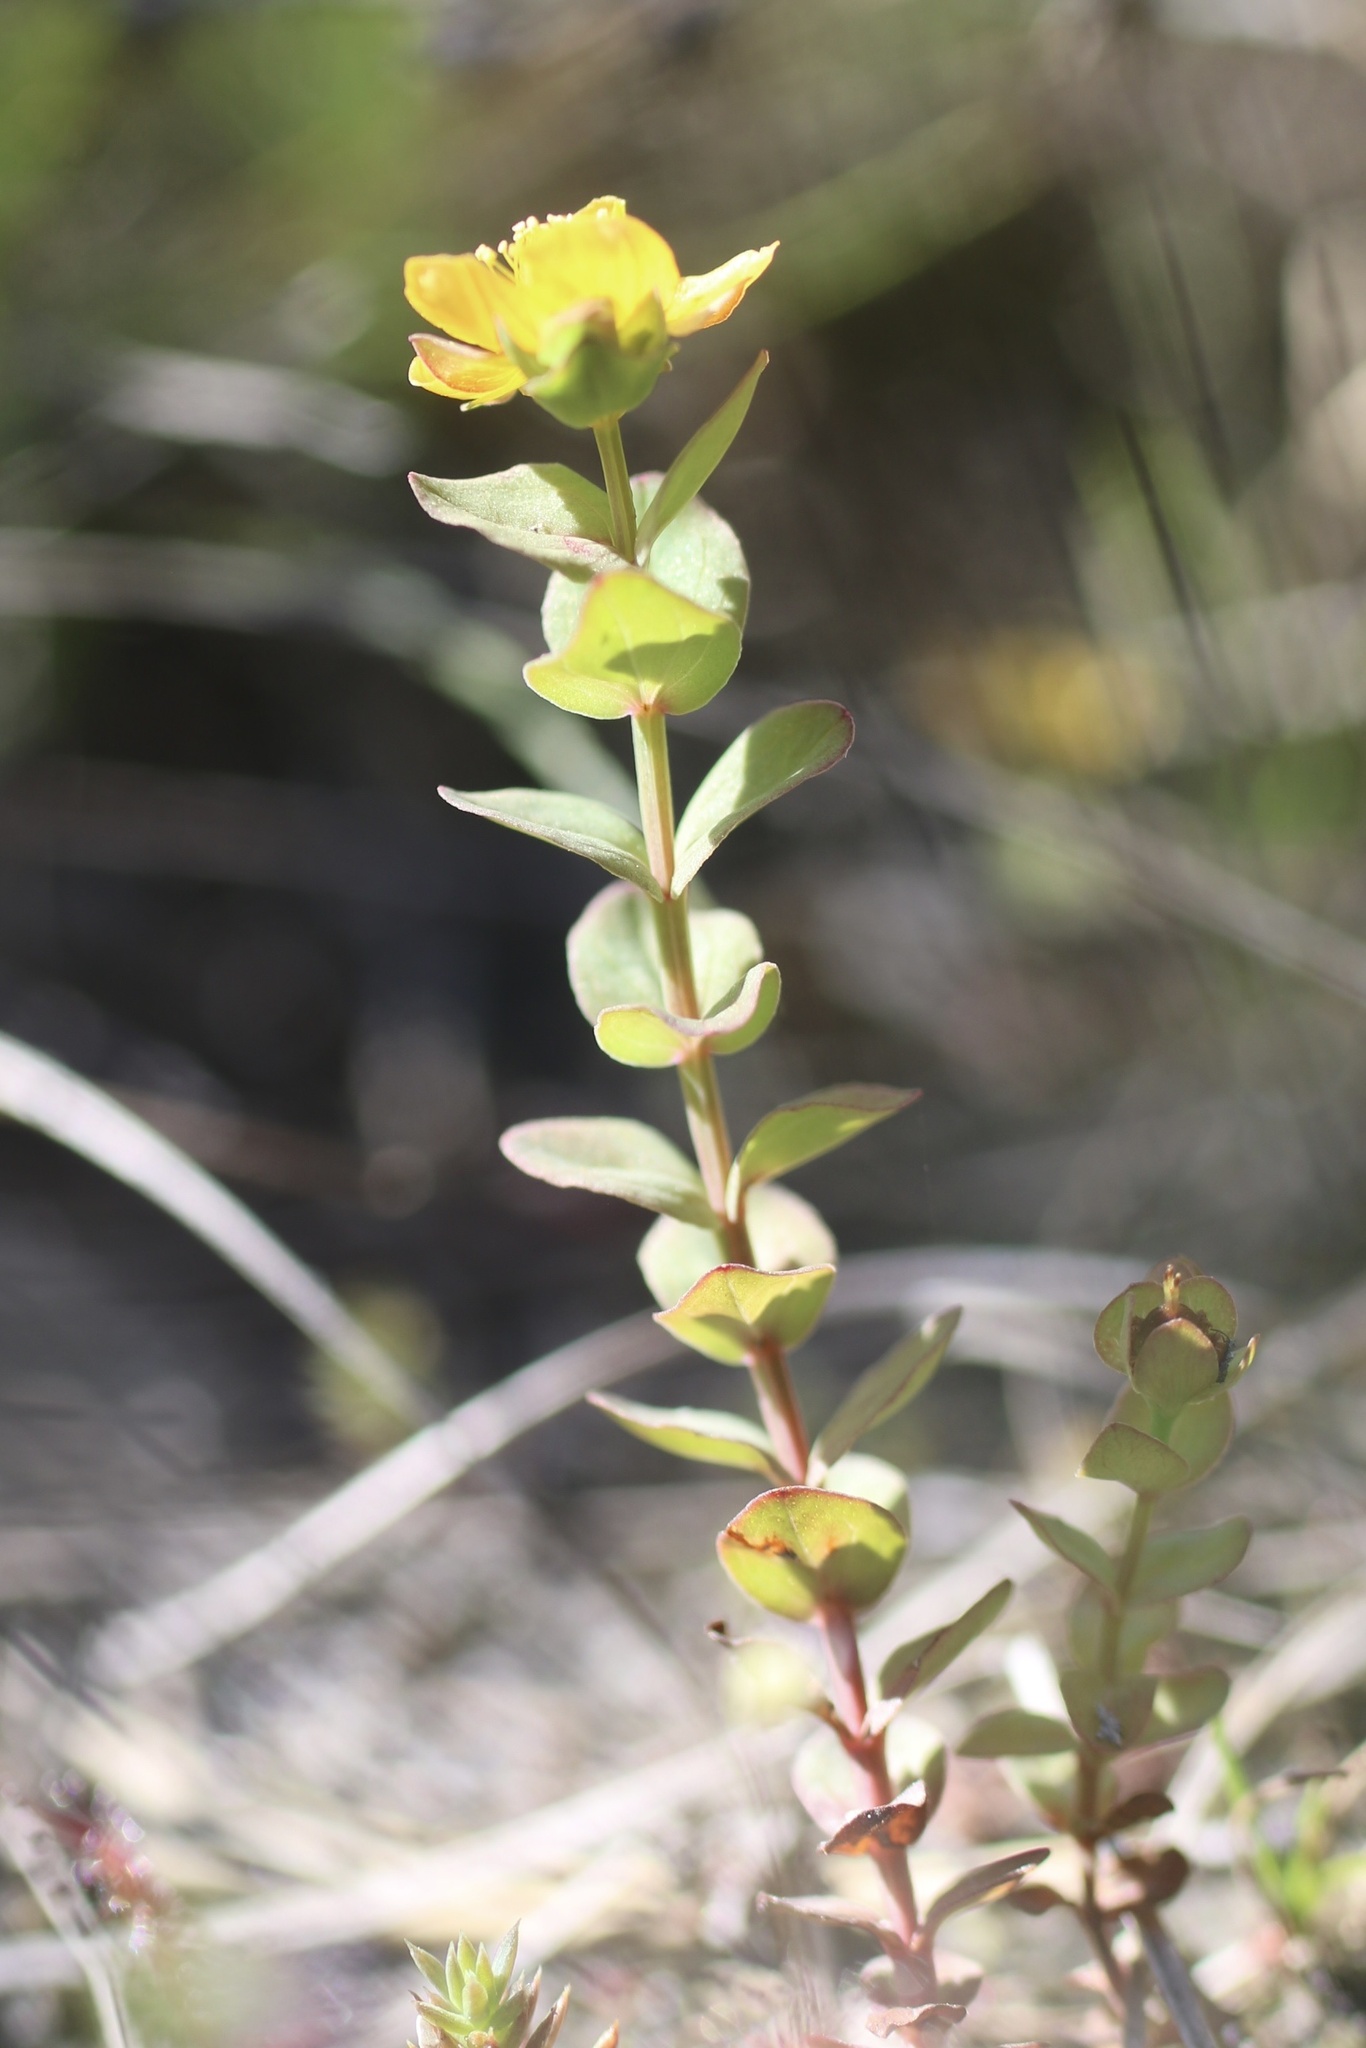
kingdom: Plantae
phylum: Tracheophyta
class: Magnoliopsida
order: Malpighiales
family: Hypericaceae
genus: Hypericum
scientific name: Hypericum anagalloides
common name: Bog st. john's-wort
